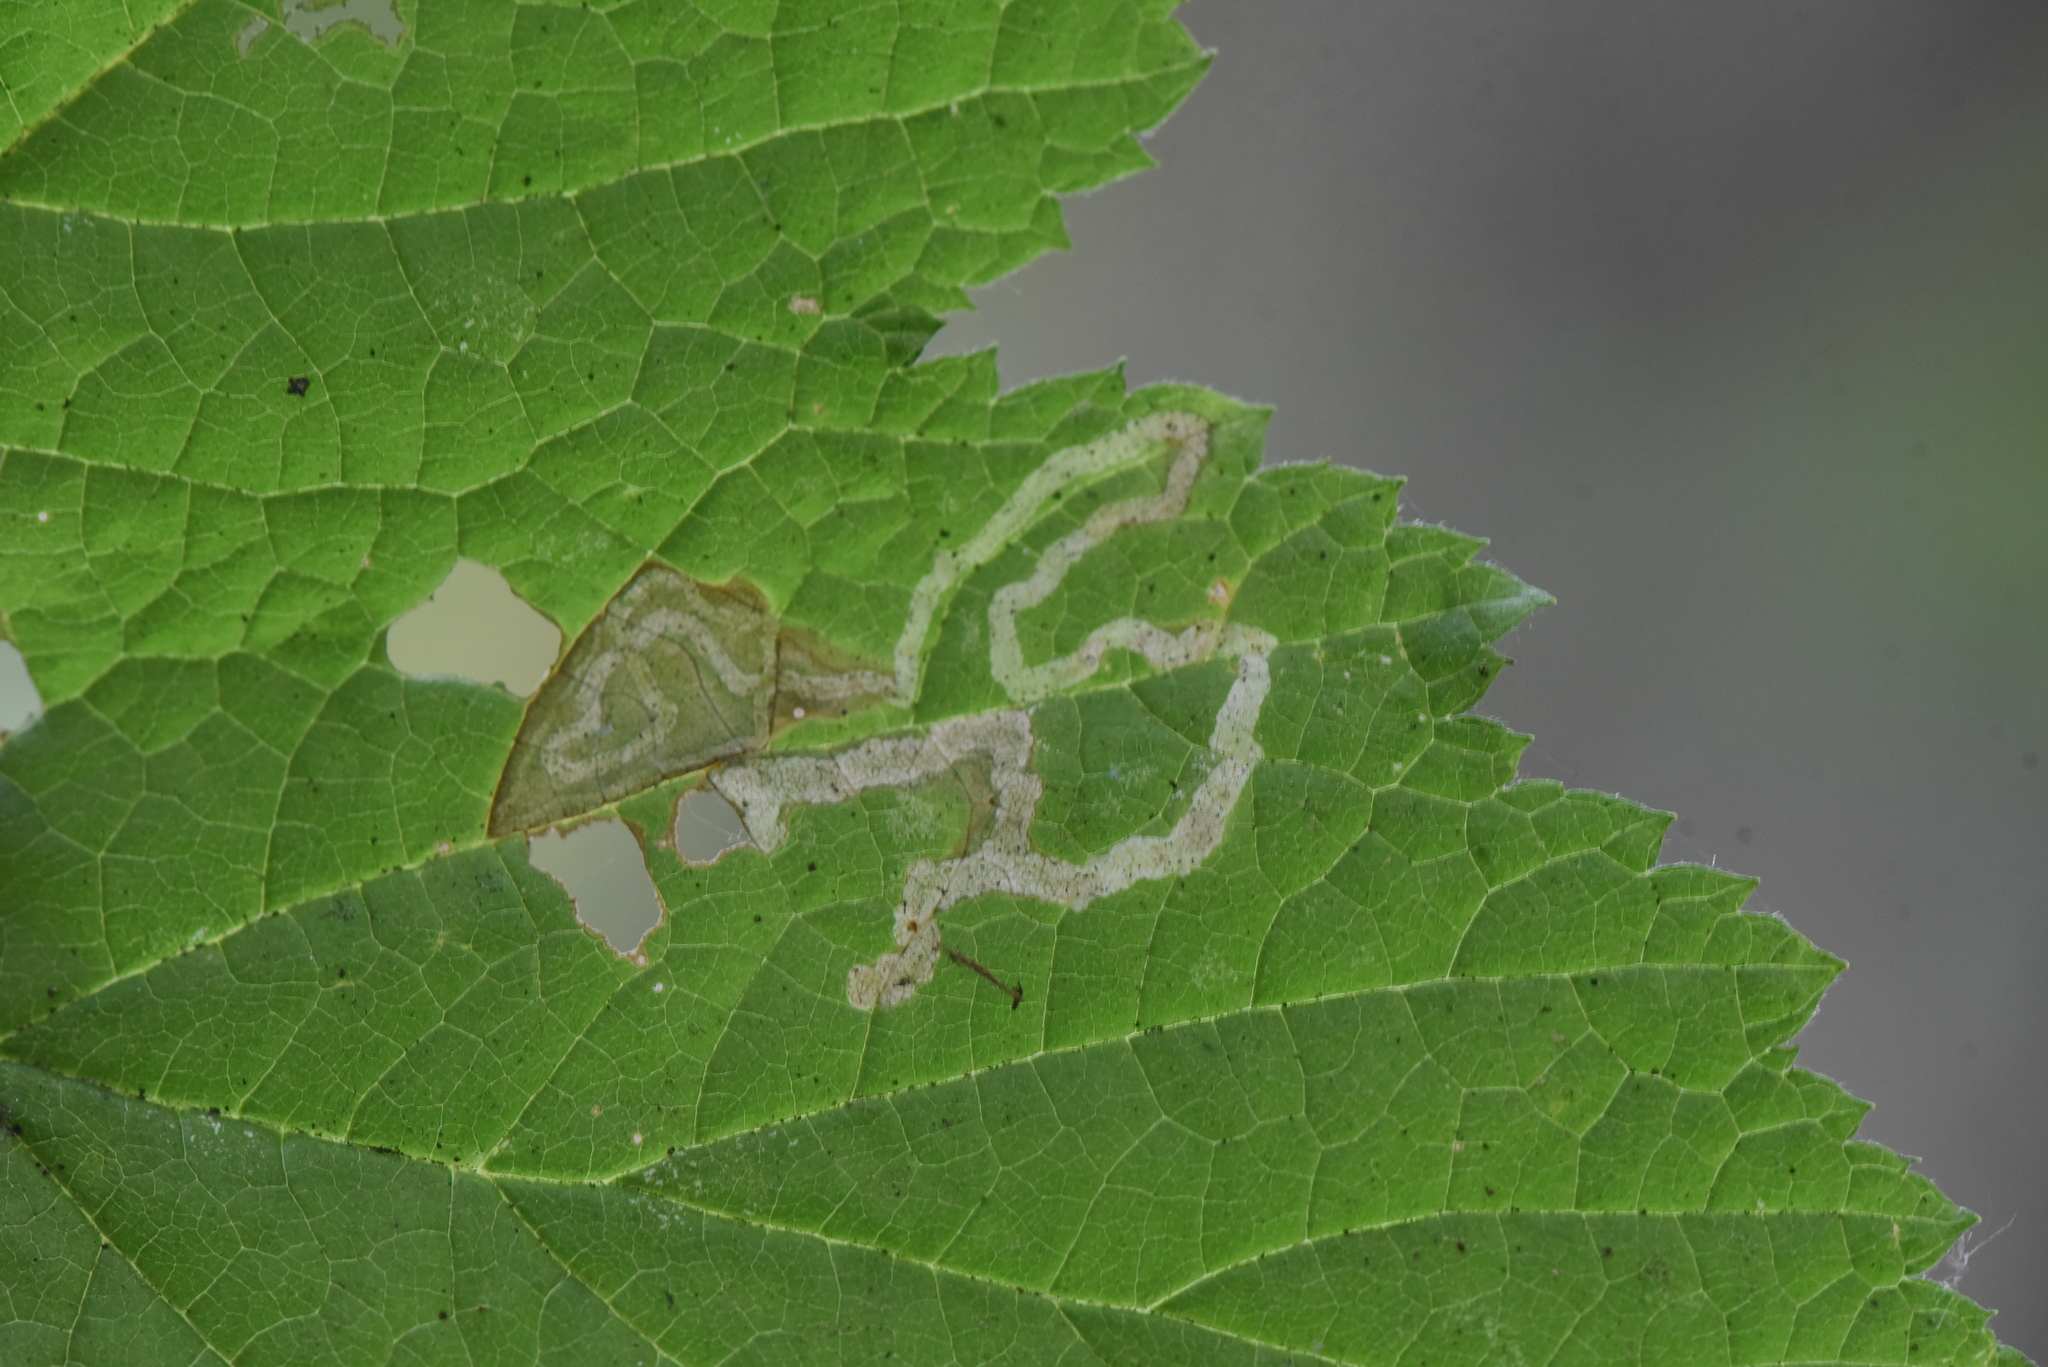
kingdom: Animalia
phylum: Arthropoda
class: Insecta
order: Diptera
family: Agromyzidae
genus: Agromyza
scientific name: Agromyza vockerothi
